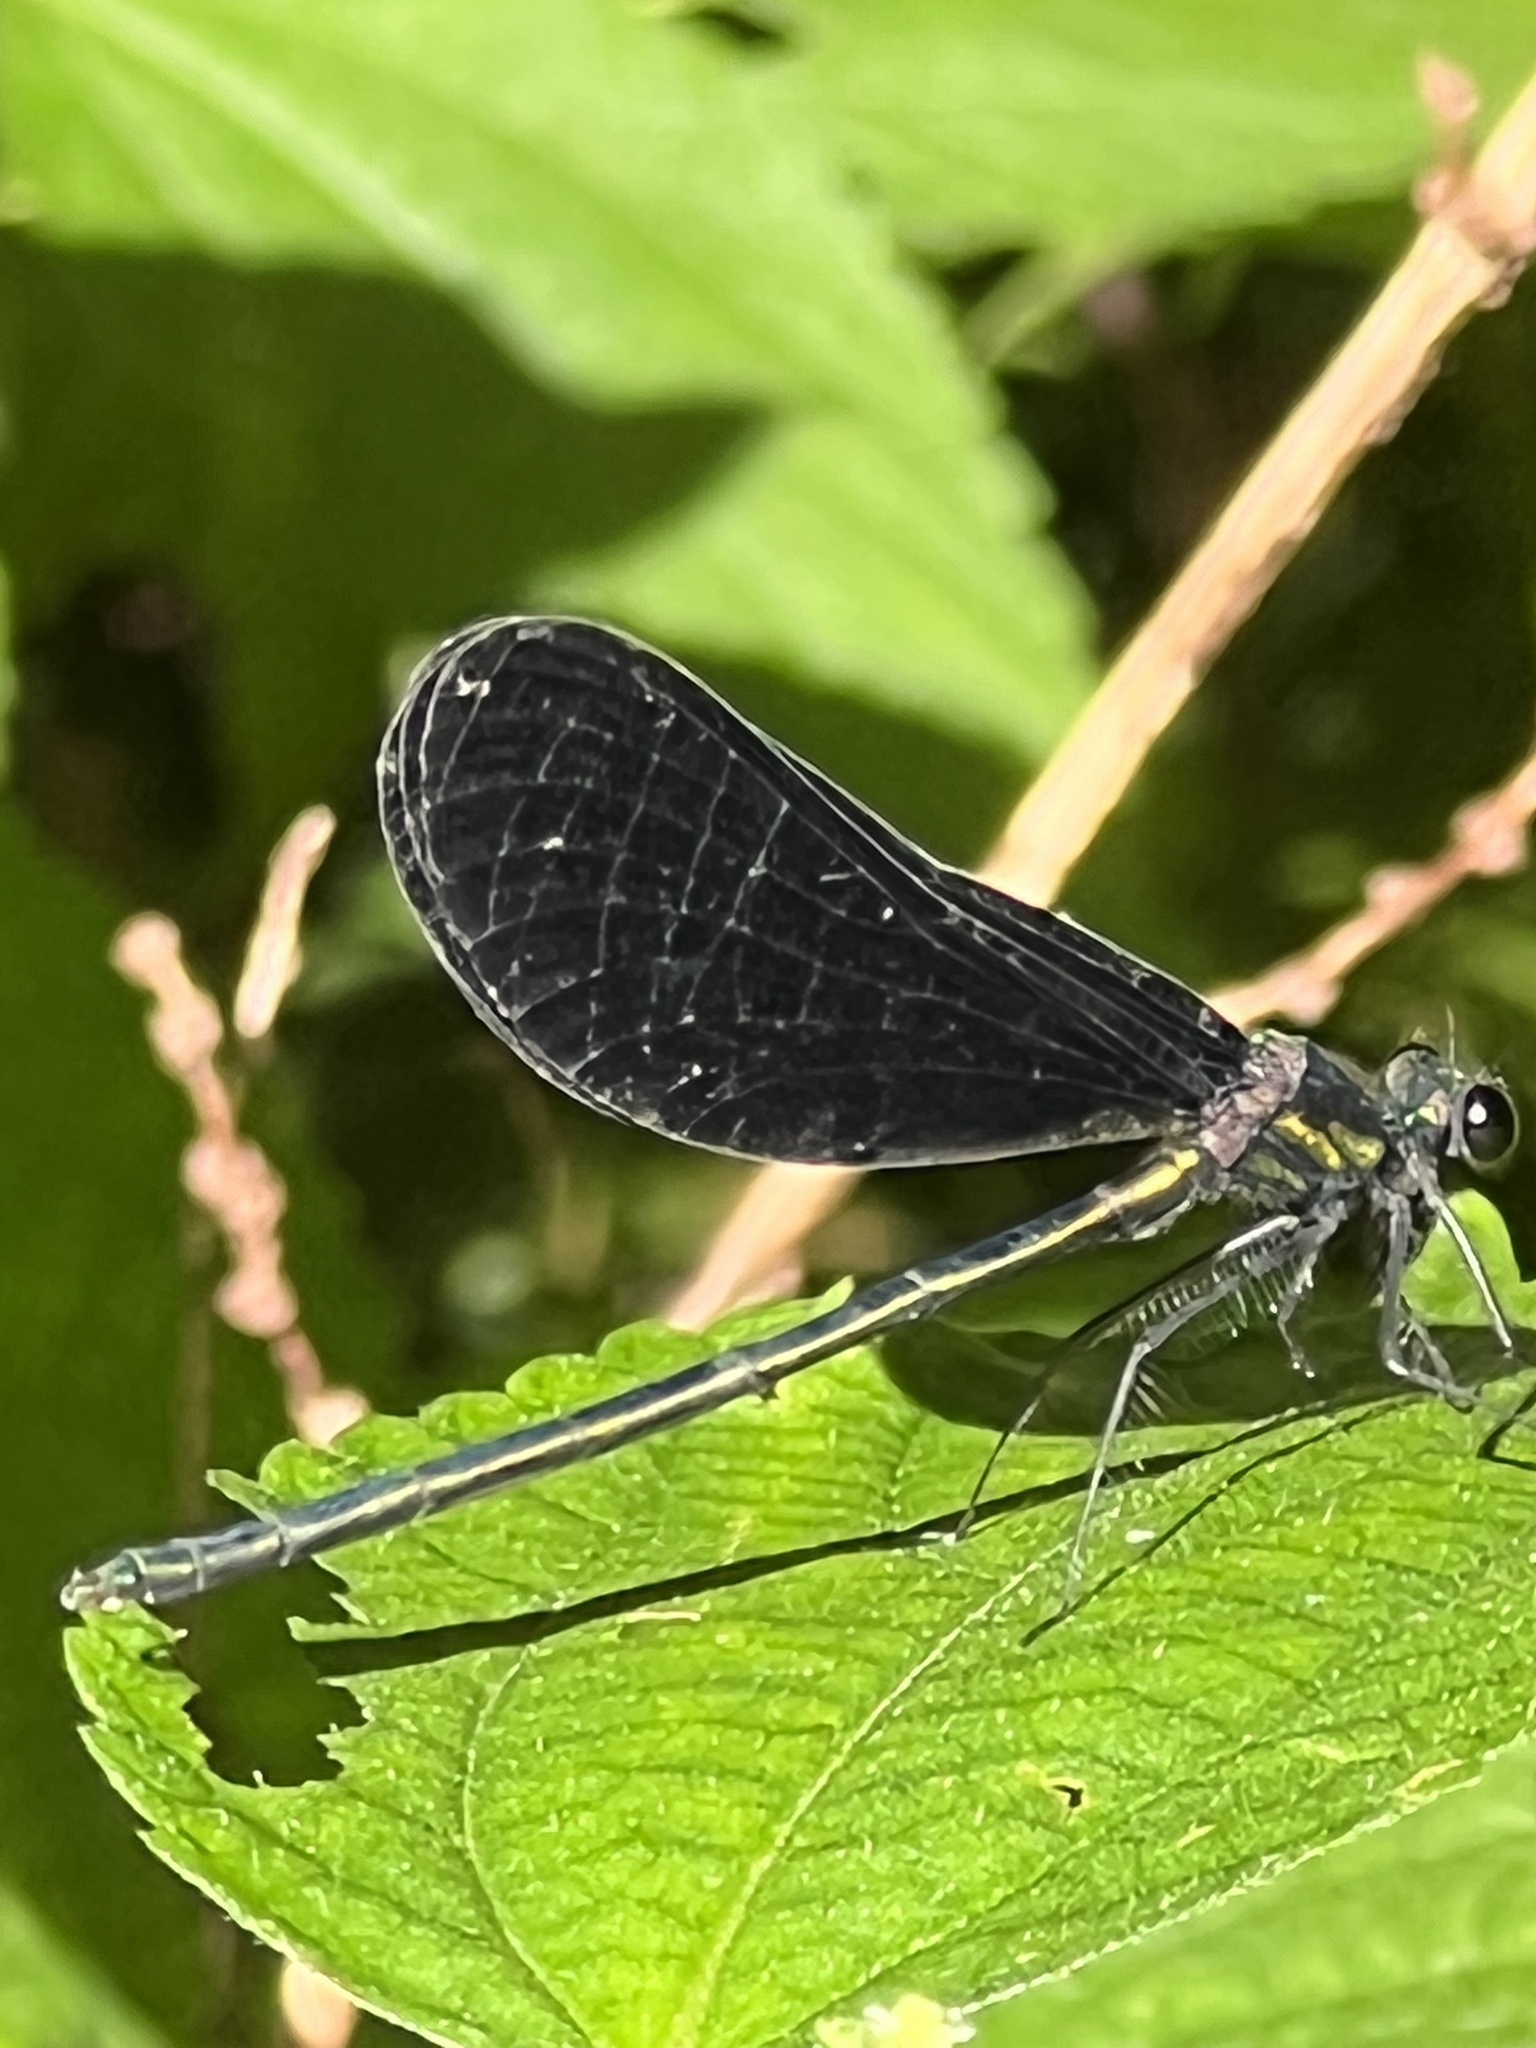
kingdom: Animalia
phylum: Arthropoda
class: Insecta
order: Odonata
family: Calopterygidae
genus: Calopteryx
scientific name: Calopteryx maculata
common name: Ebony jewelwing
